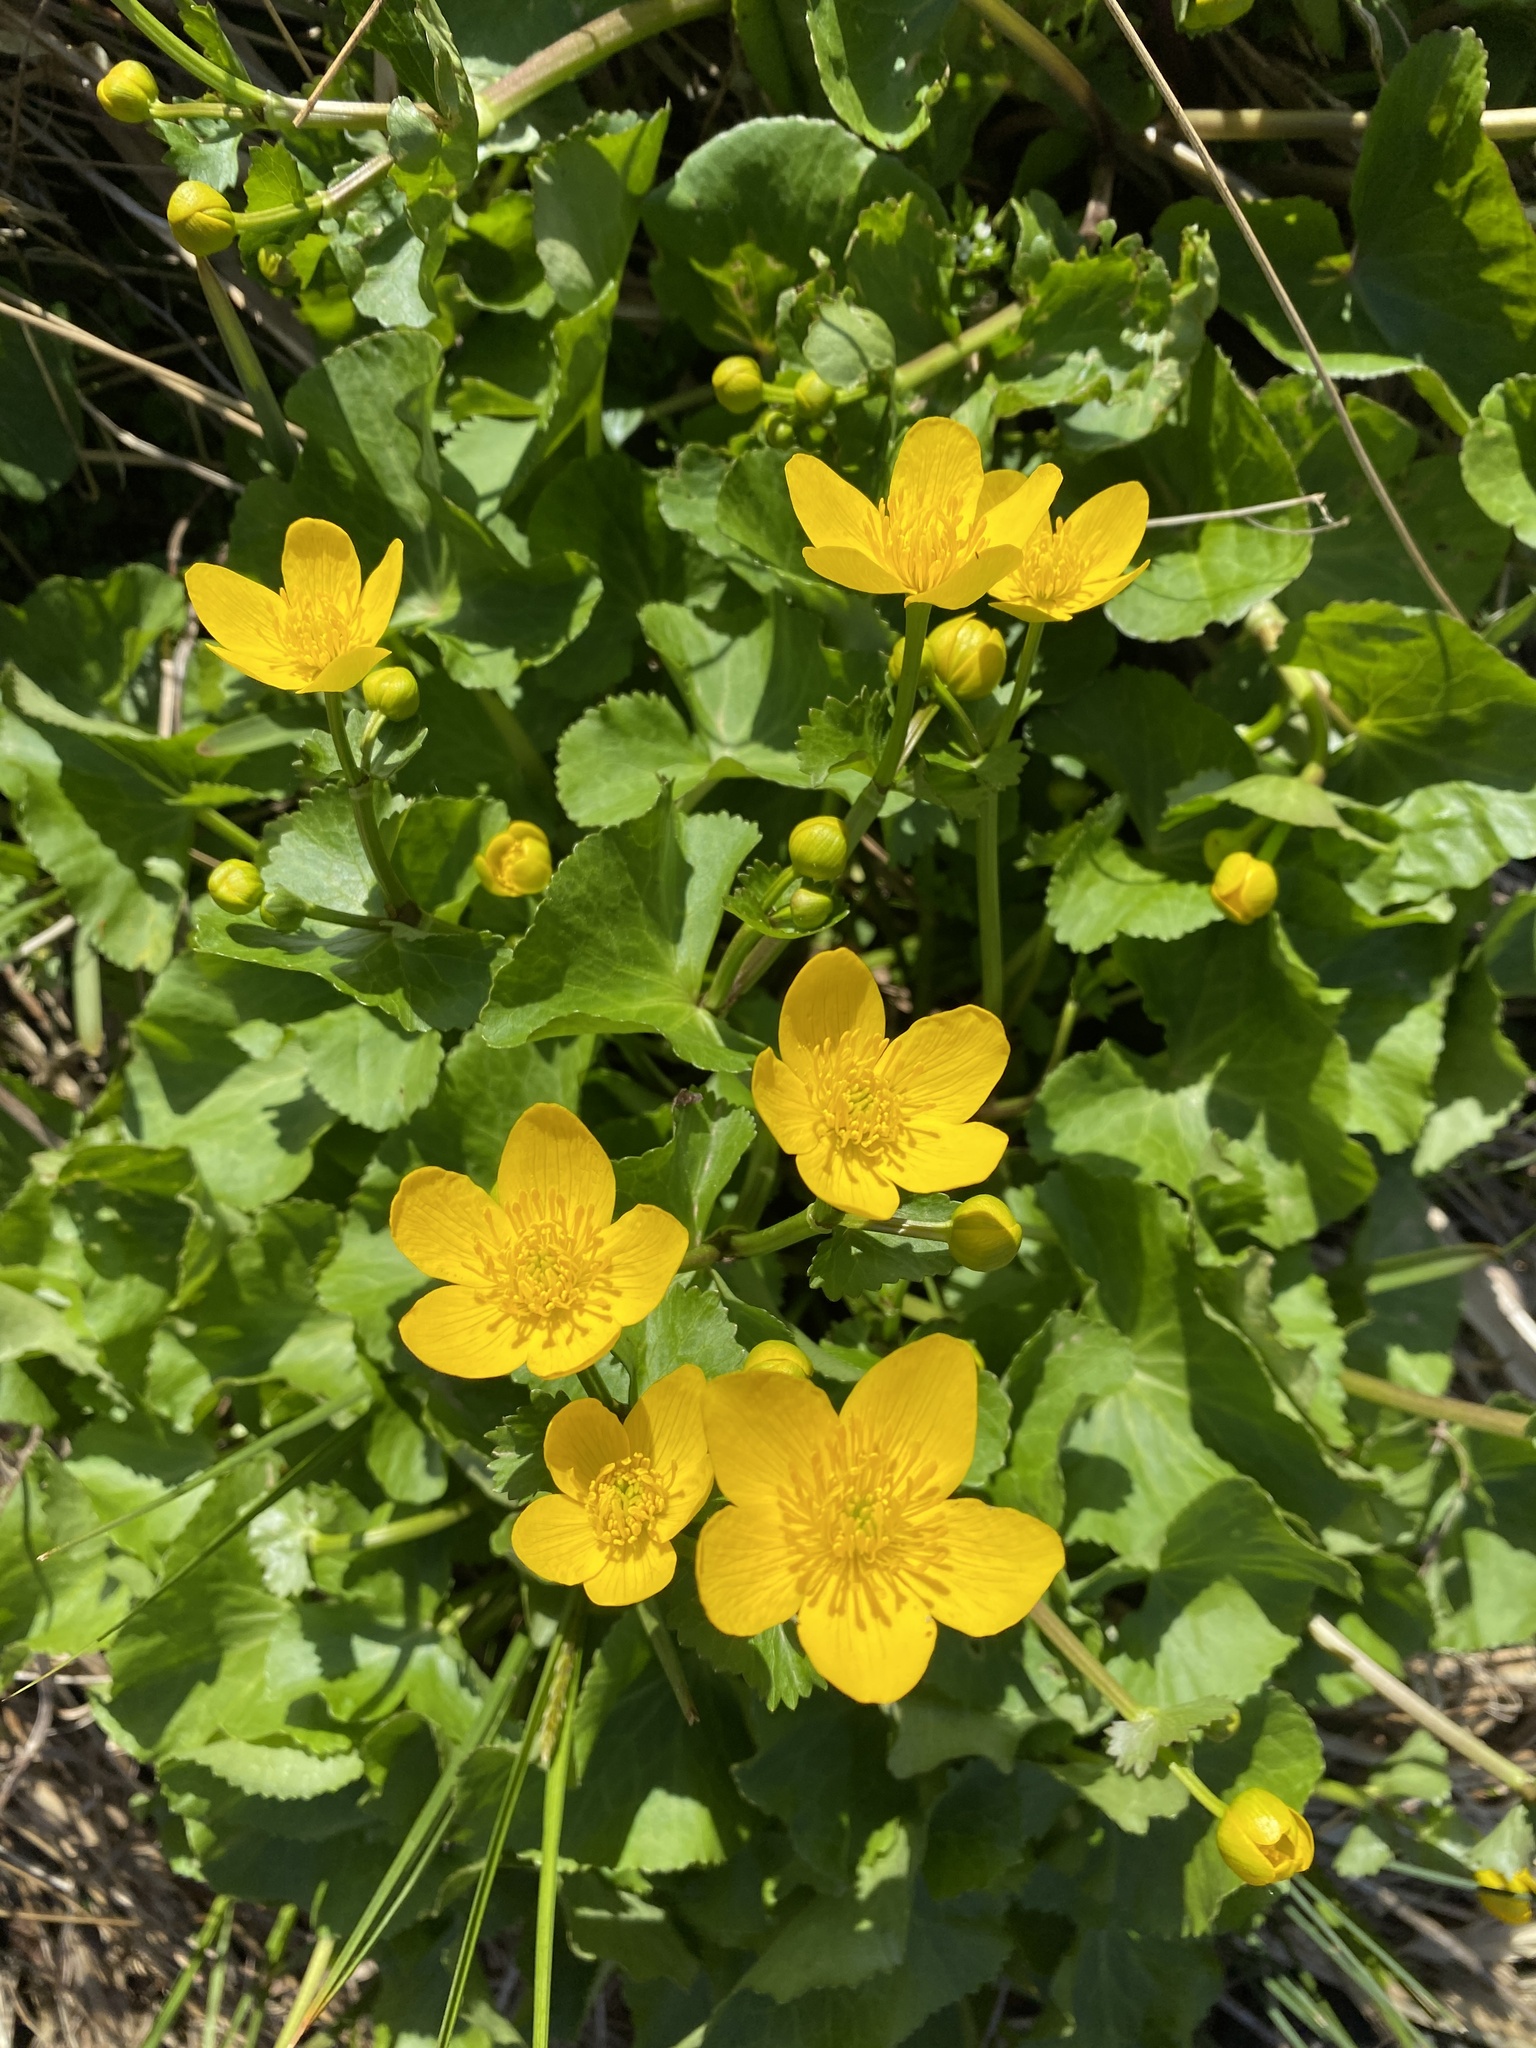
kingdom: Plantae
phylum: Tracheophyta
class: Magnoliopsida
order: Ranunculales
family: Ranunculaceae
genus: Caltha
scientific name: Caltha palustris
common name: Marsh marigold
